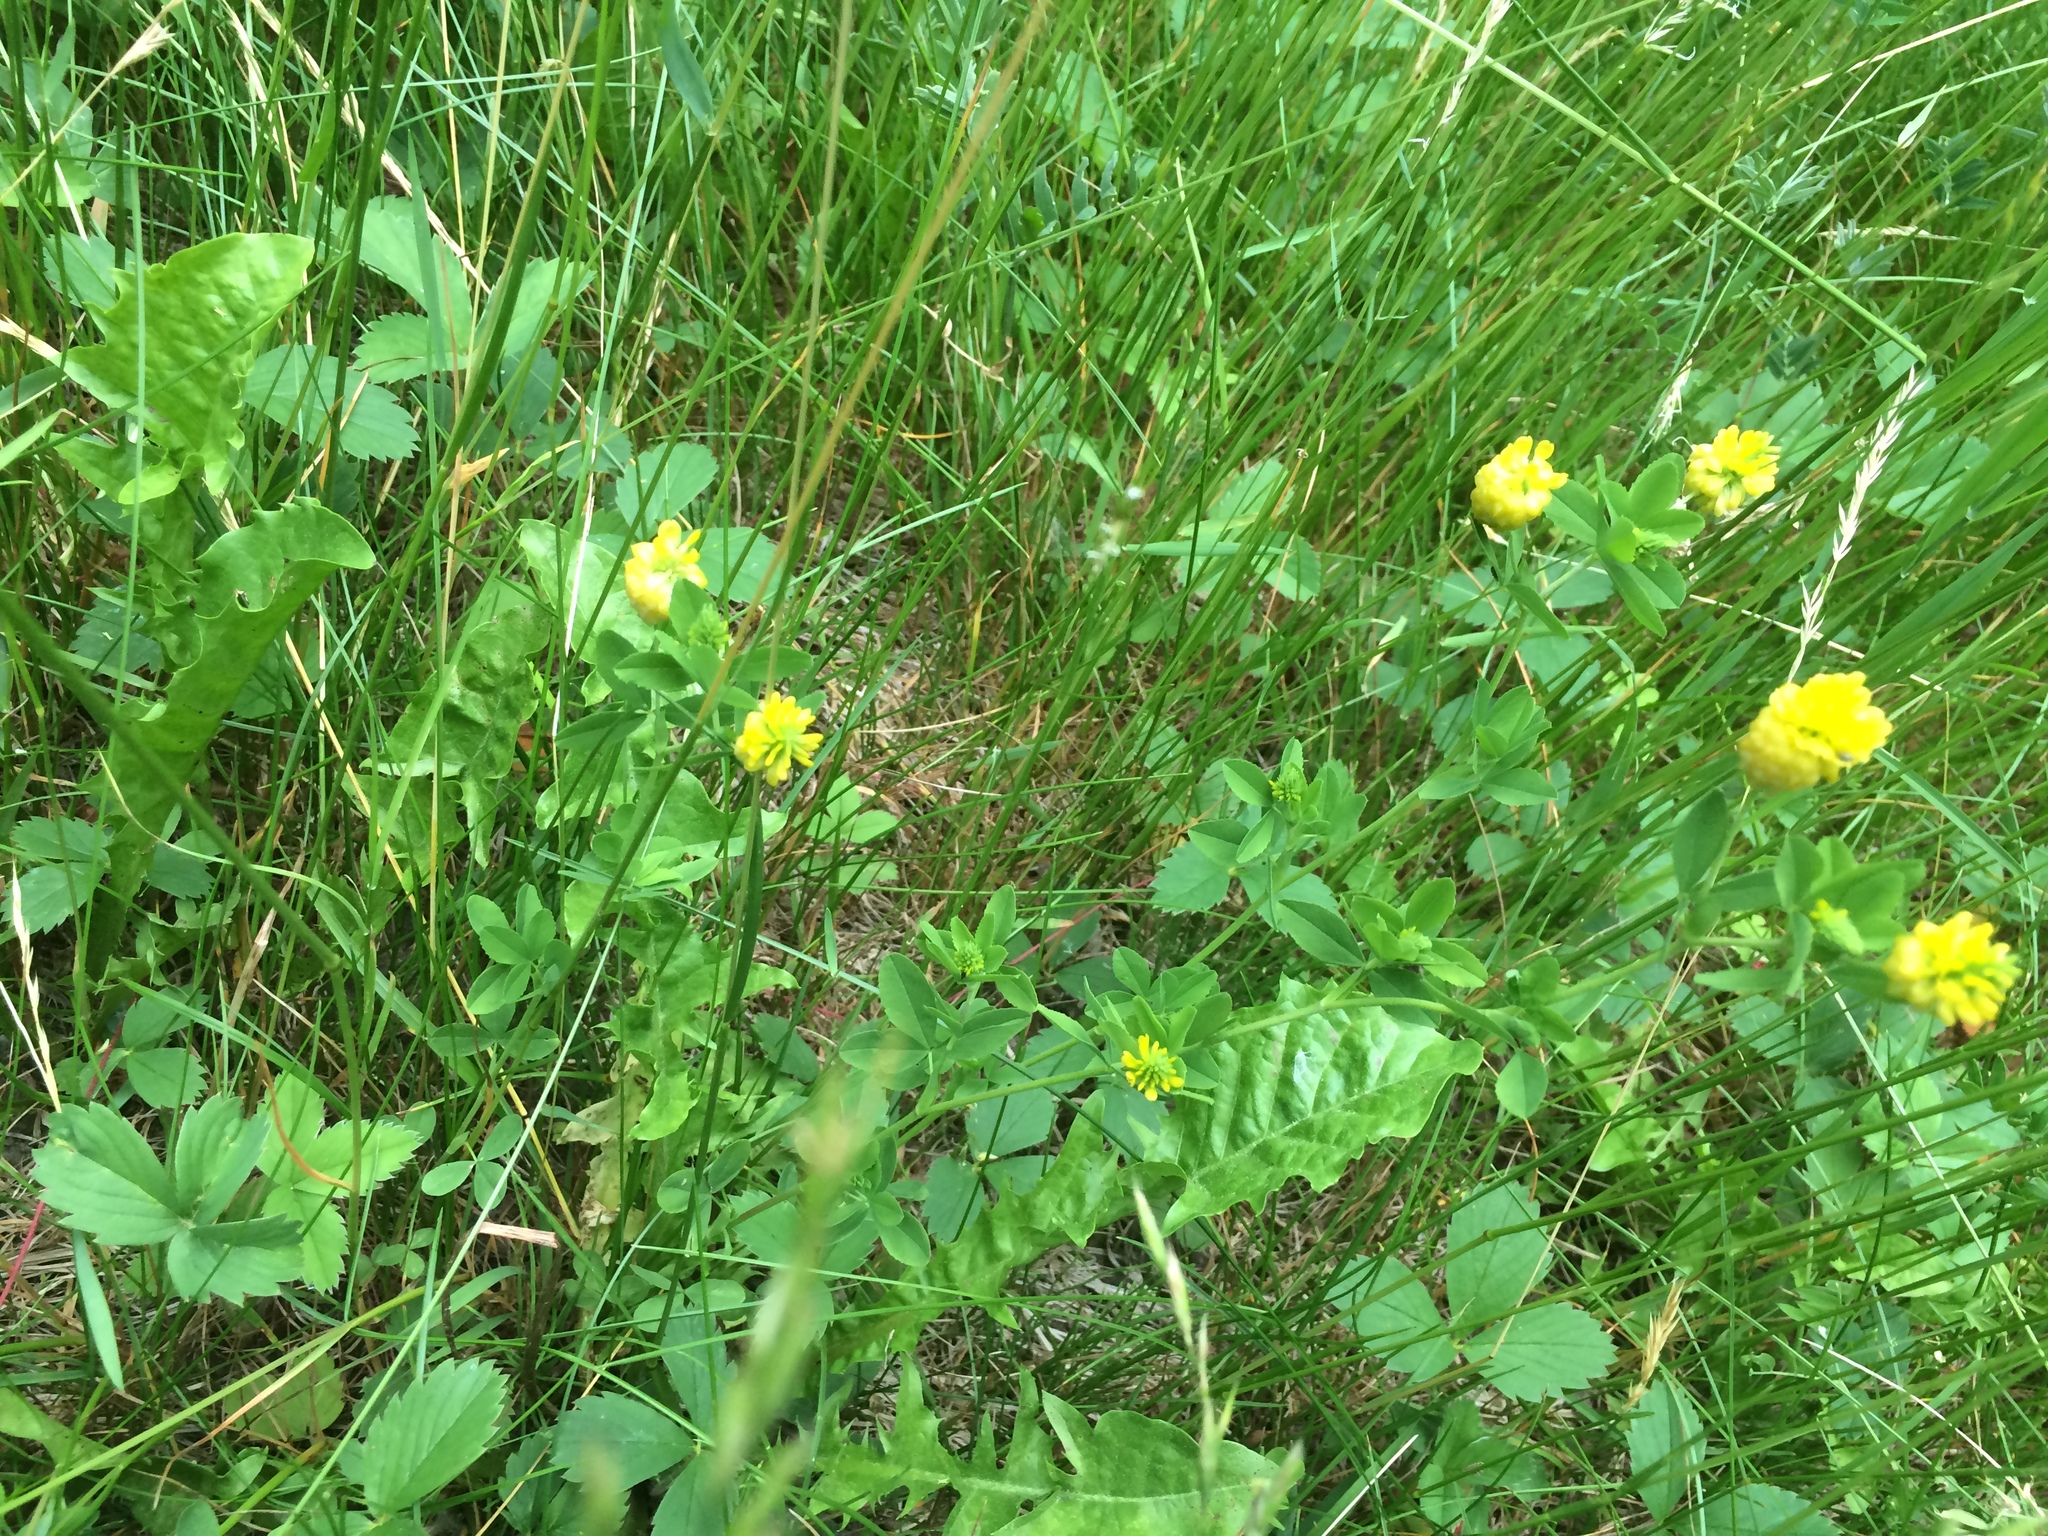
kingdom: Plantae
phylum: Tracheophyta
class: Magnoliopsida
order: Fabales
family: Fabaceae
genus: Trifolium
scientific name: Trifolium aureum
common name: Golden clover
